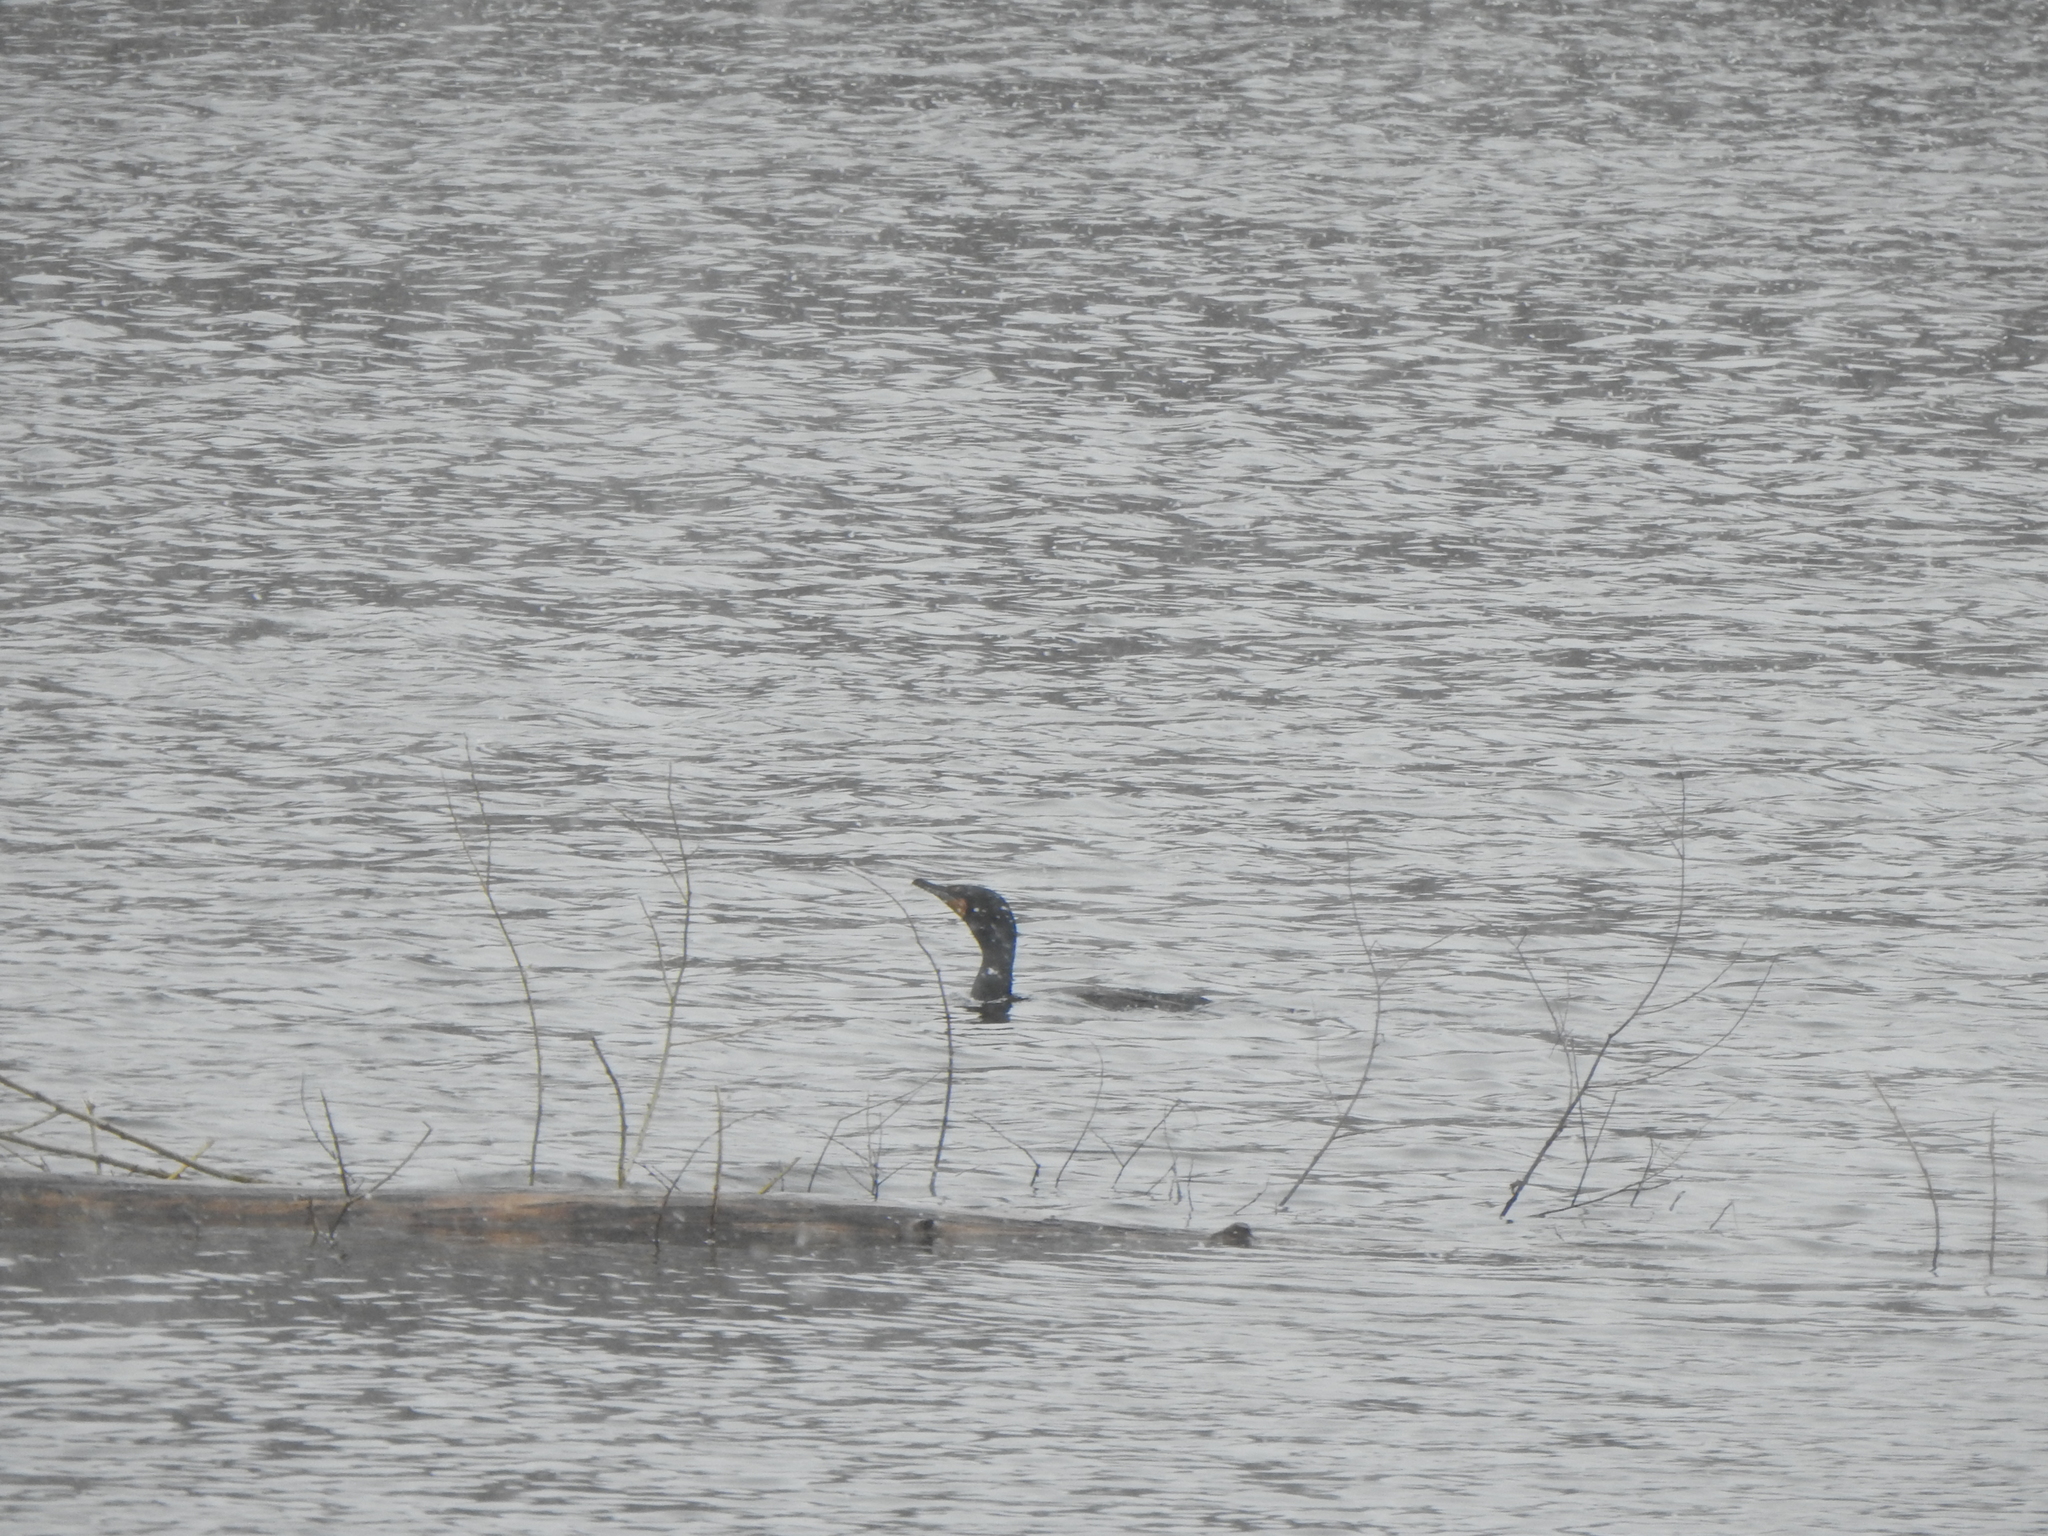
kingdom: Animalia
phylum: Chordata
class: Aves
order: Suliformes
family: Phalacrocoracidae
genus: Phalacrocorax
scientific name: Phalacrocorax auritus
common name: Double-crested cormorant
